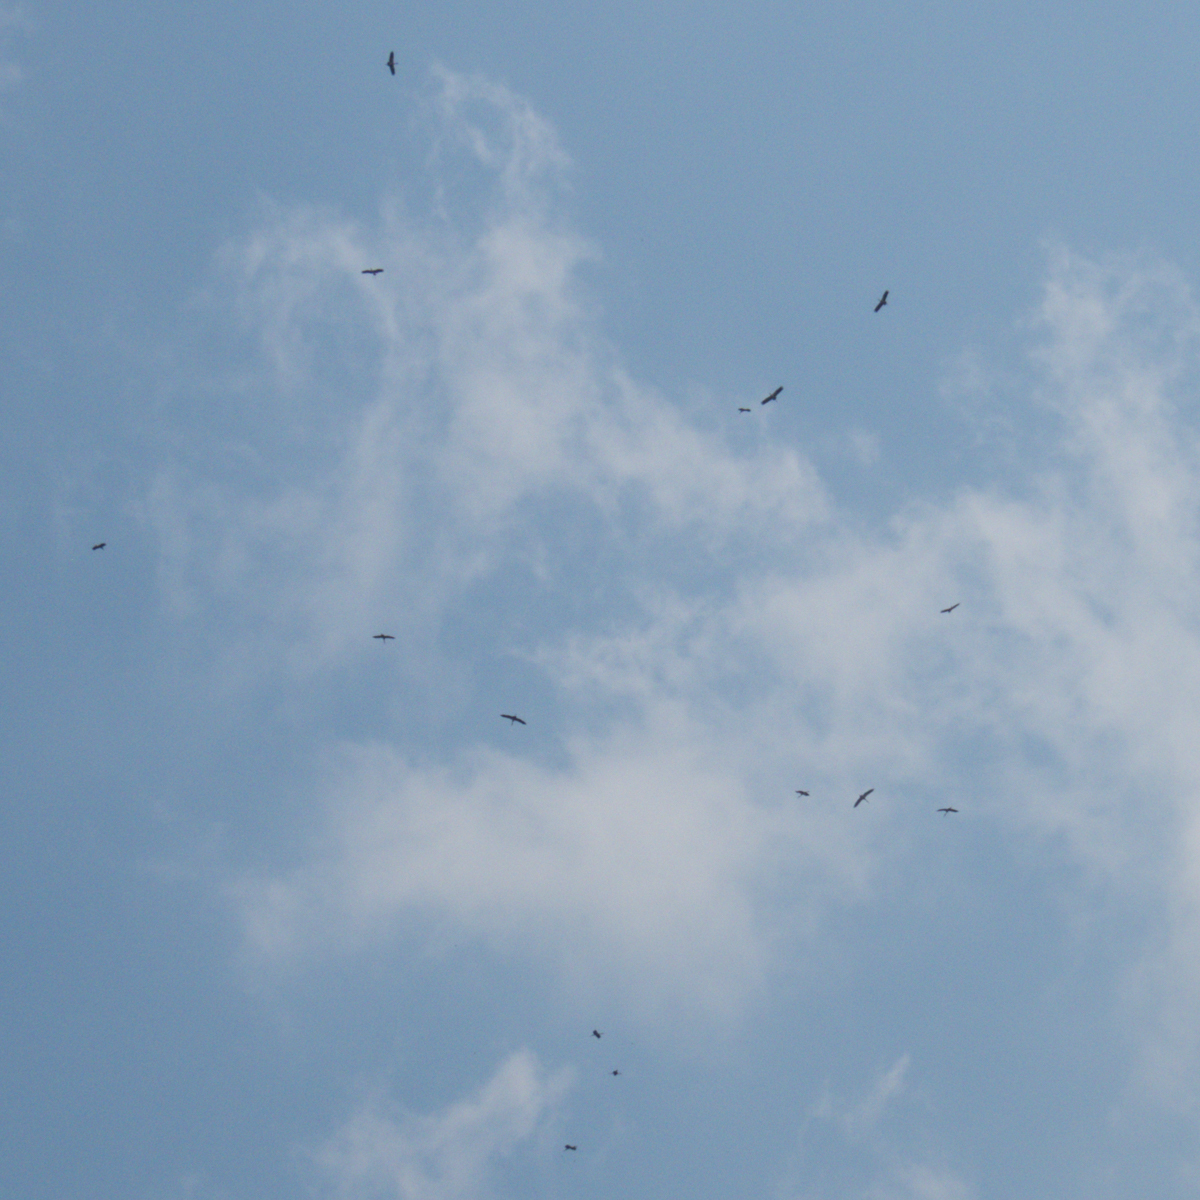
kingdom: Animalia
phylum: Chordata
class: Aves
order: Ciconiiformes
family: Ciconiidae
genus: Anastomus
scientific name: Anastomus oscitans
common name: Asian openbill
